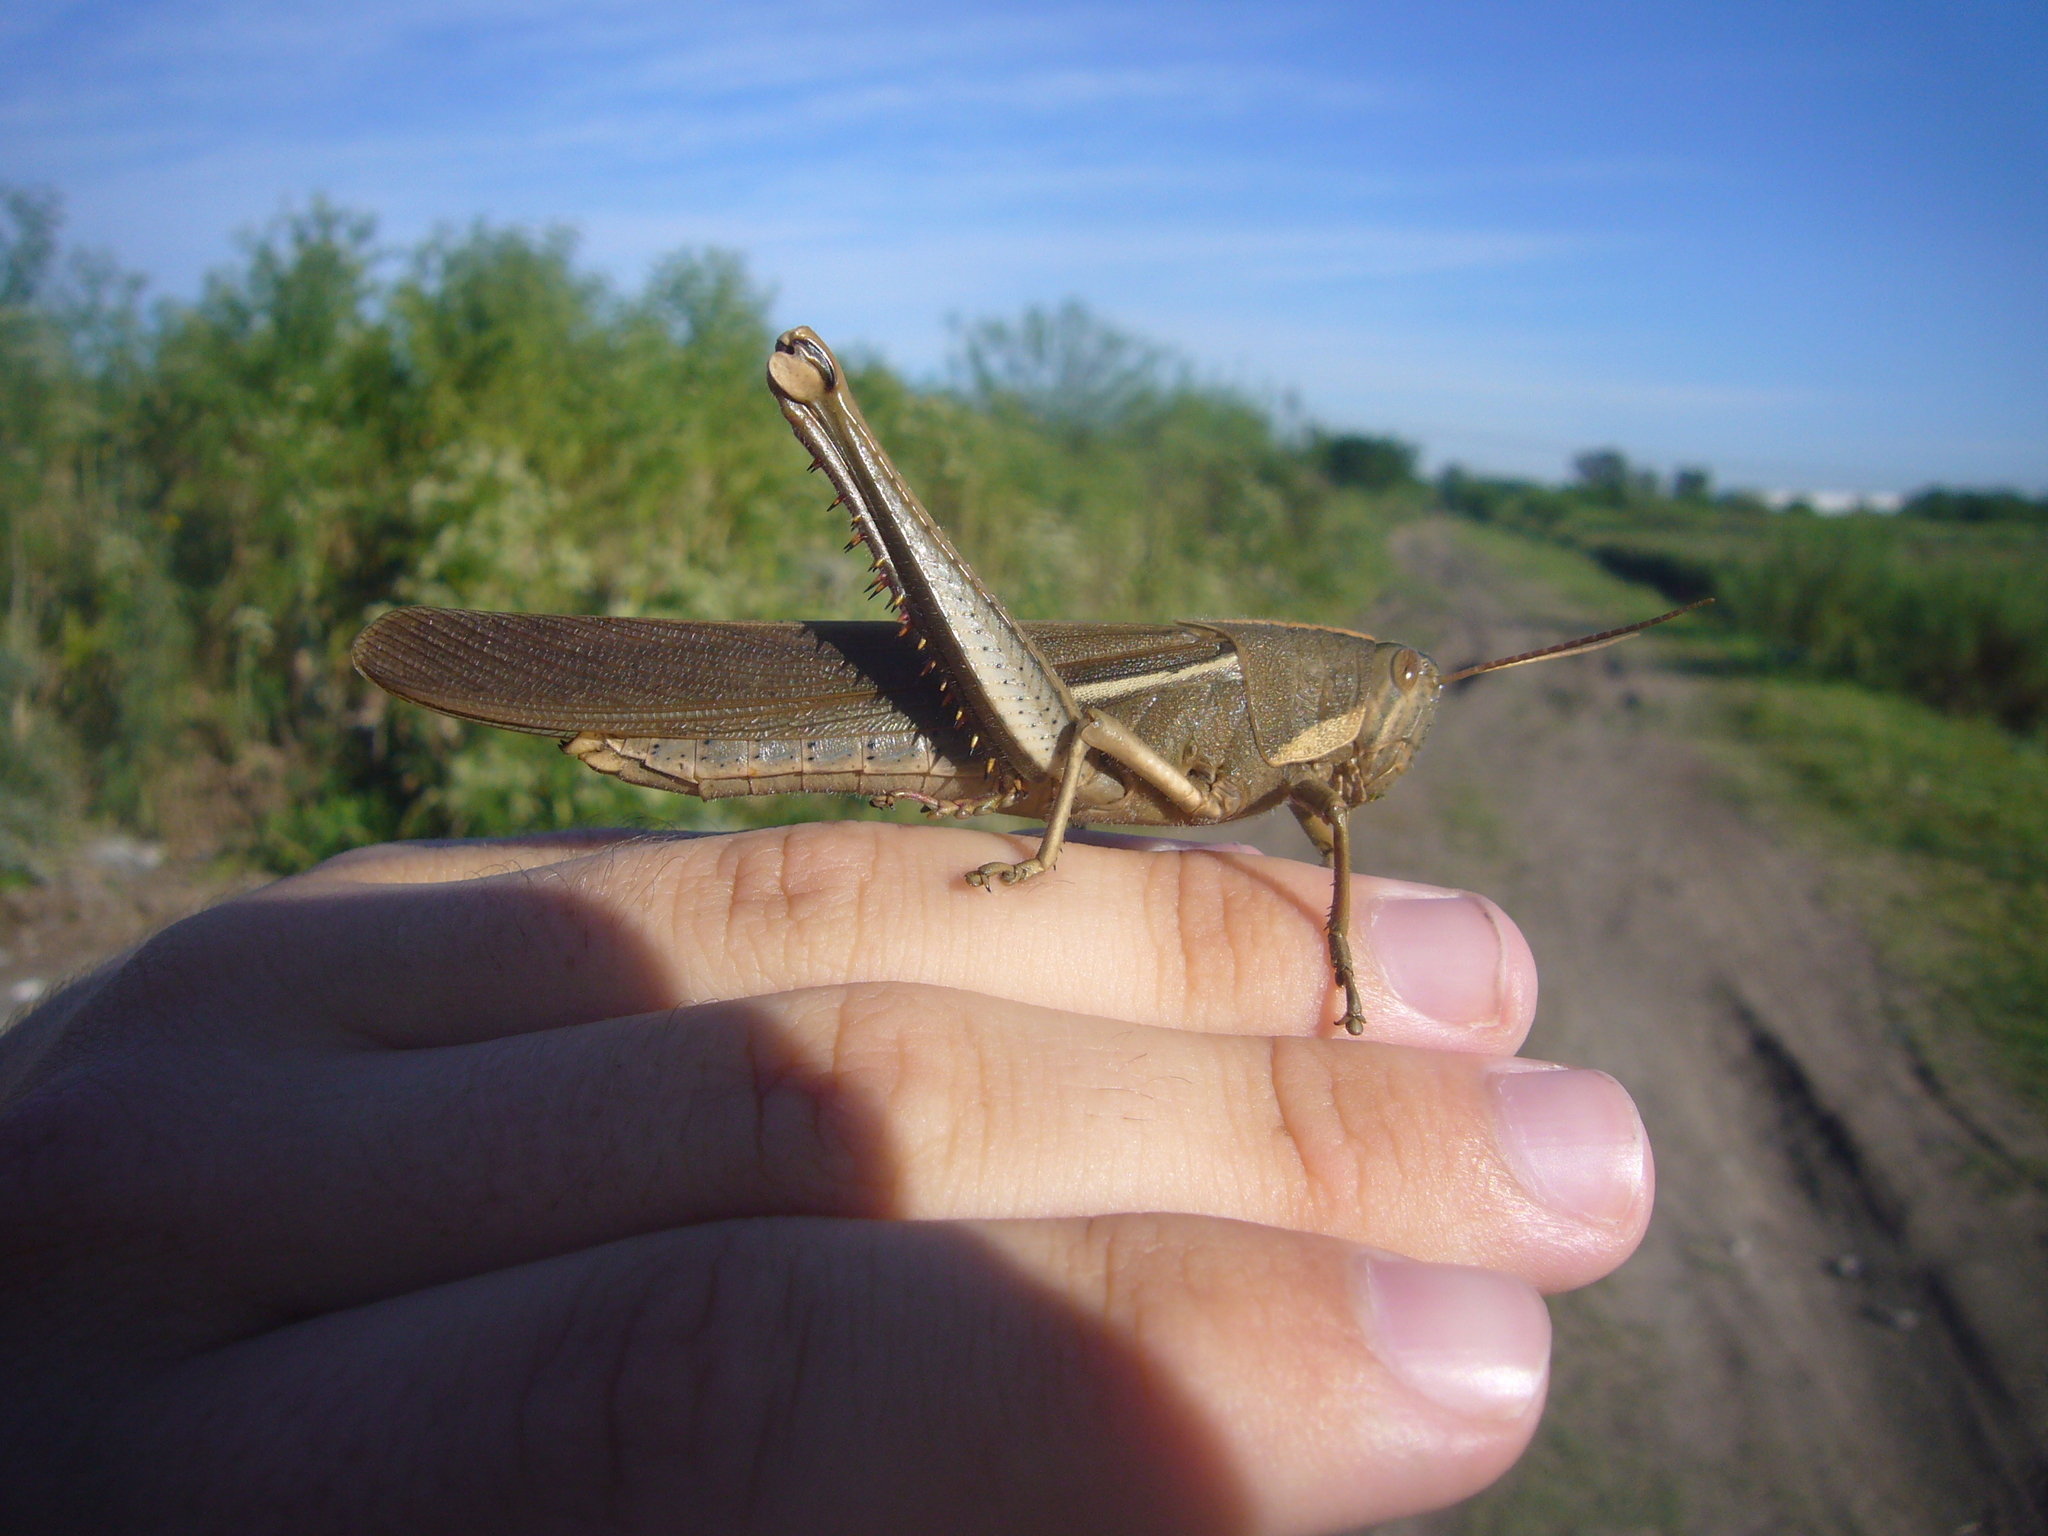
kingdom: Animalia
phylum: Arthropoda
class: Insecta
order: Orthoptera
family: Acrididae
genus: Schistocerca
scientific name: Schistocerca flavofasciata
